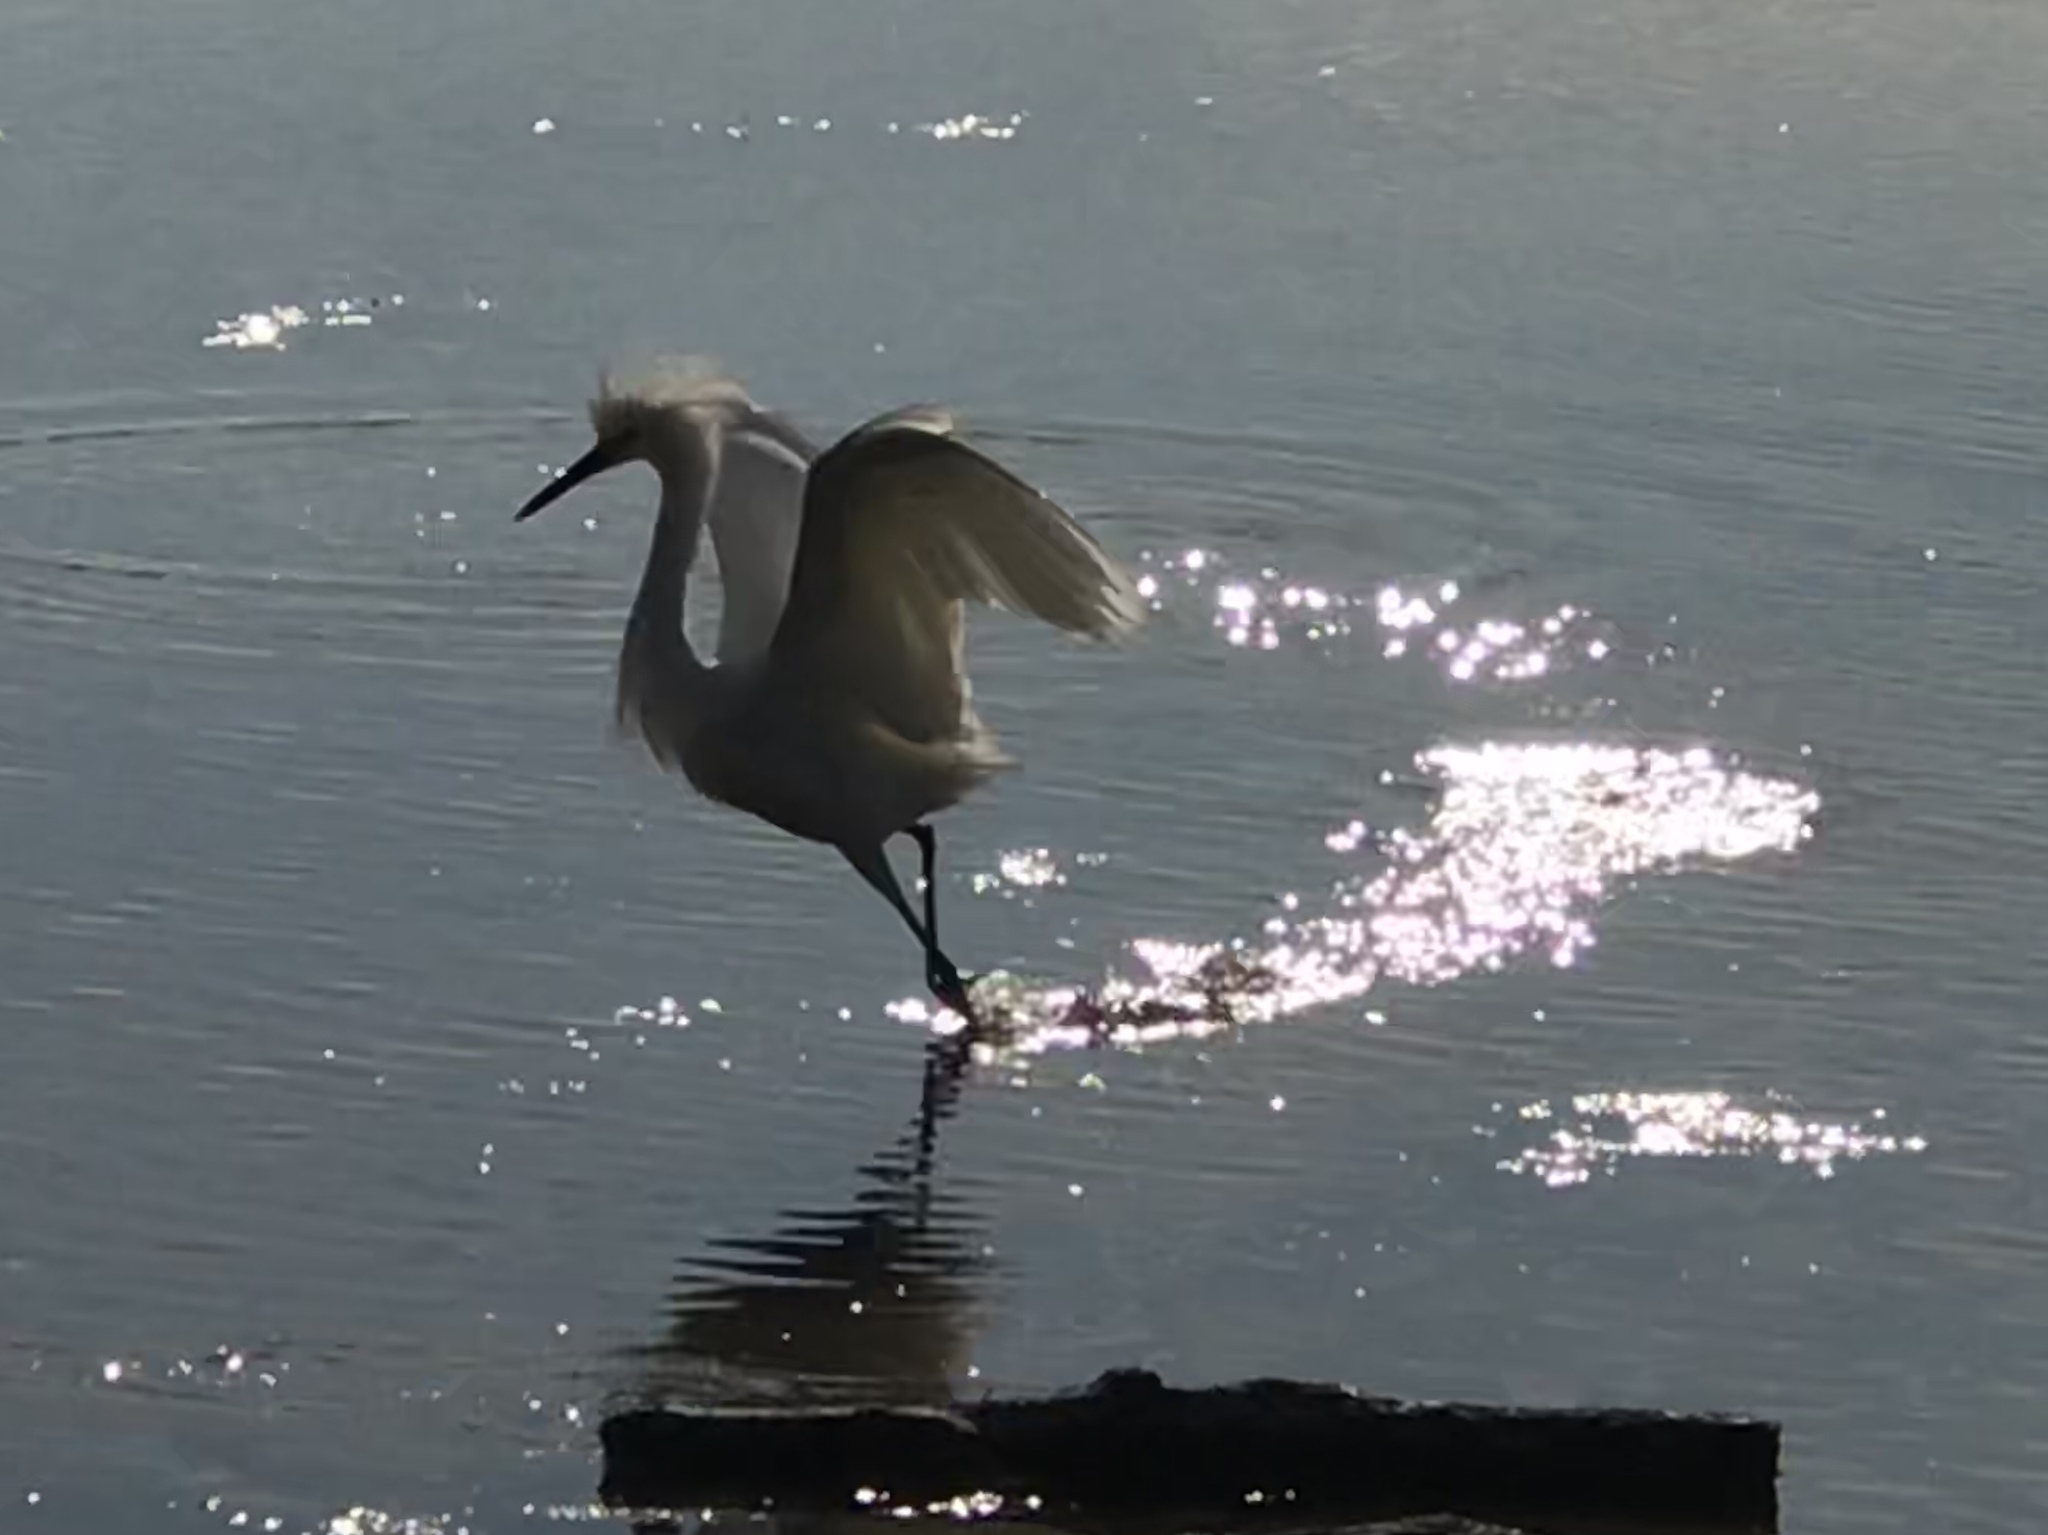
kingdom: Animalia
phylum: Chordata
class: Aves
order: Pelecaniformes
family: Ardeidae
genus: Egretta
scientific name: Egretta thula
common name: Snowy egret
